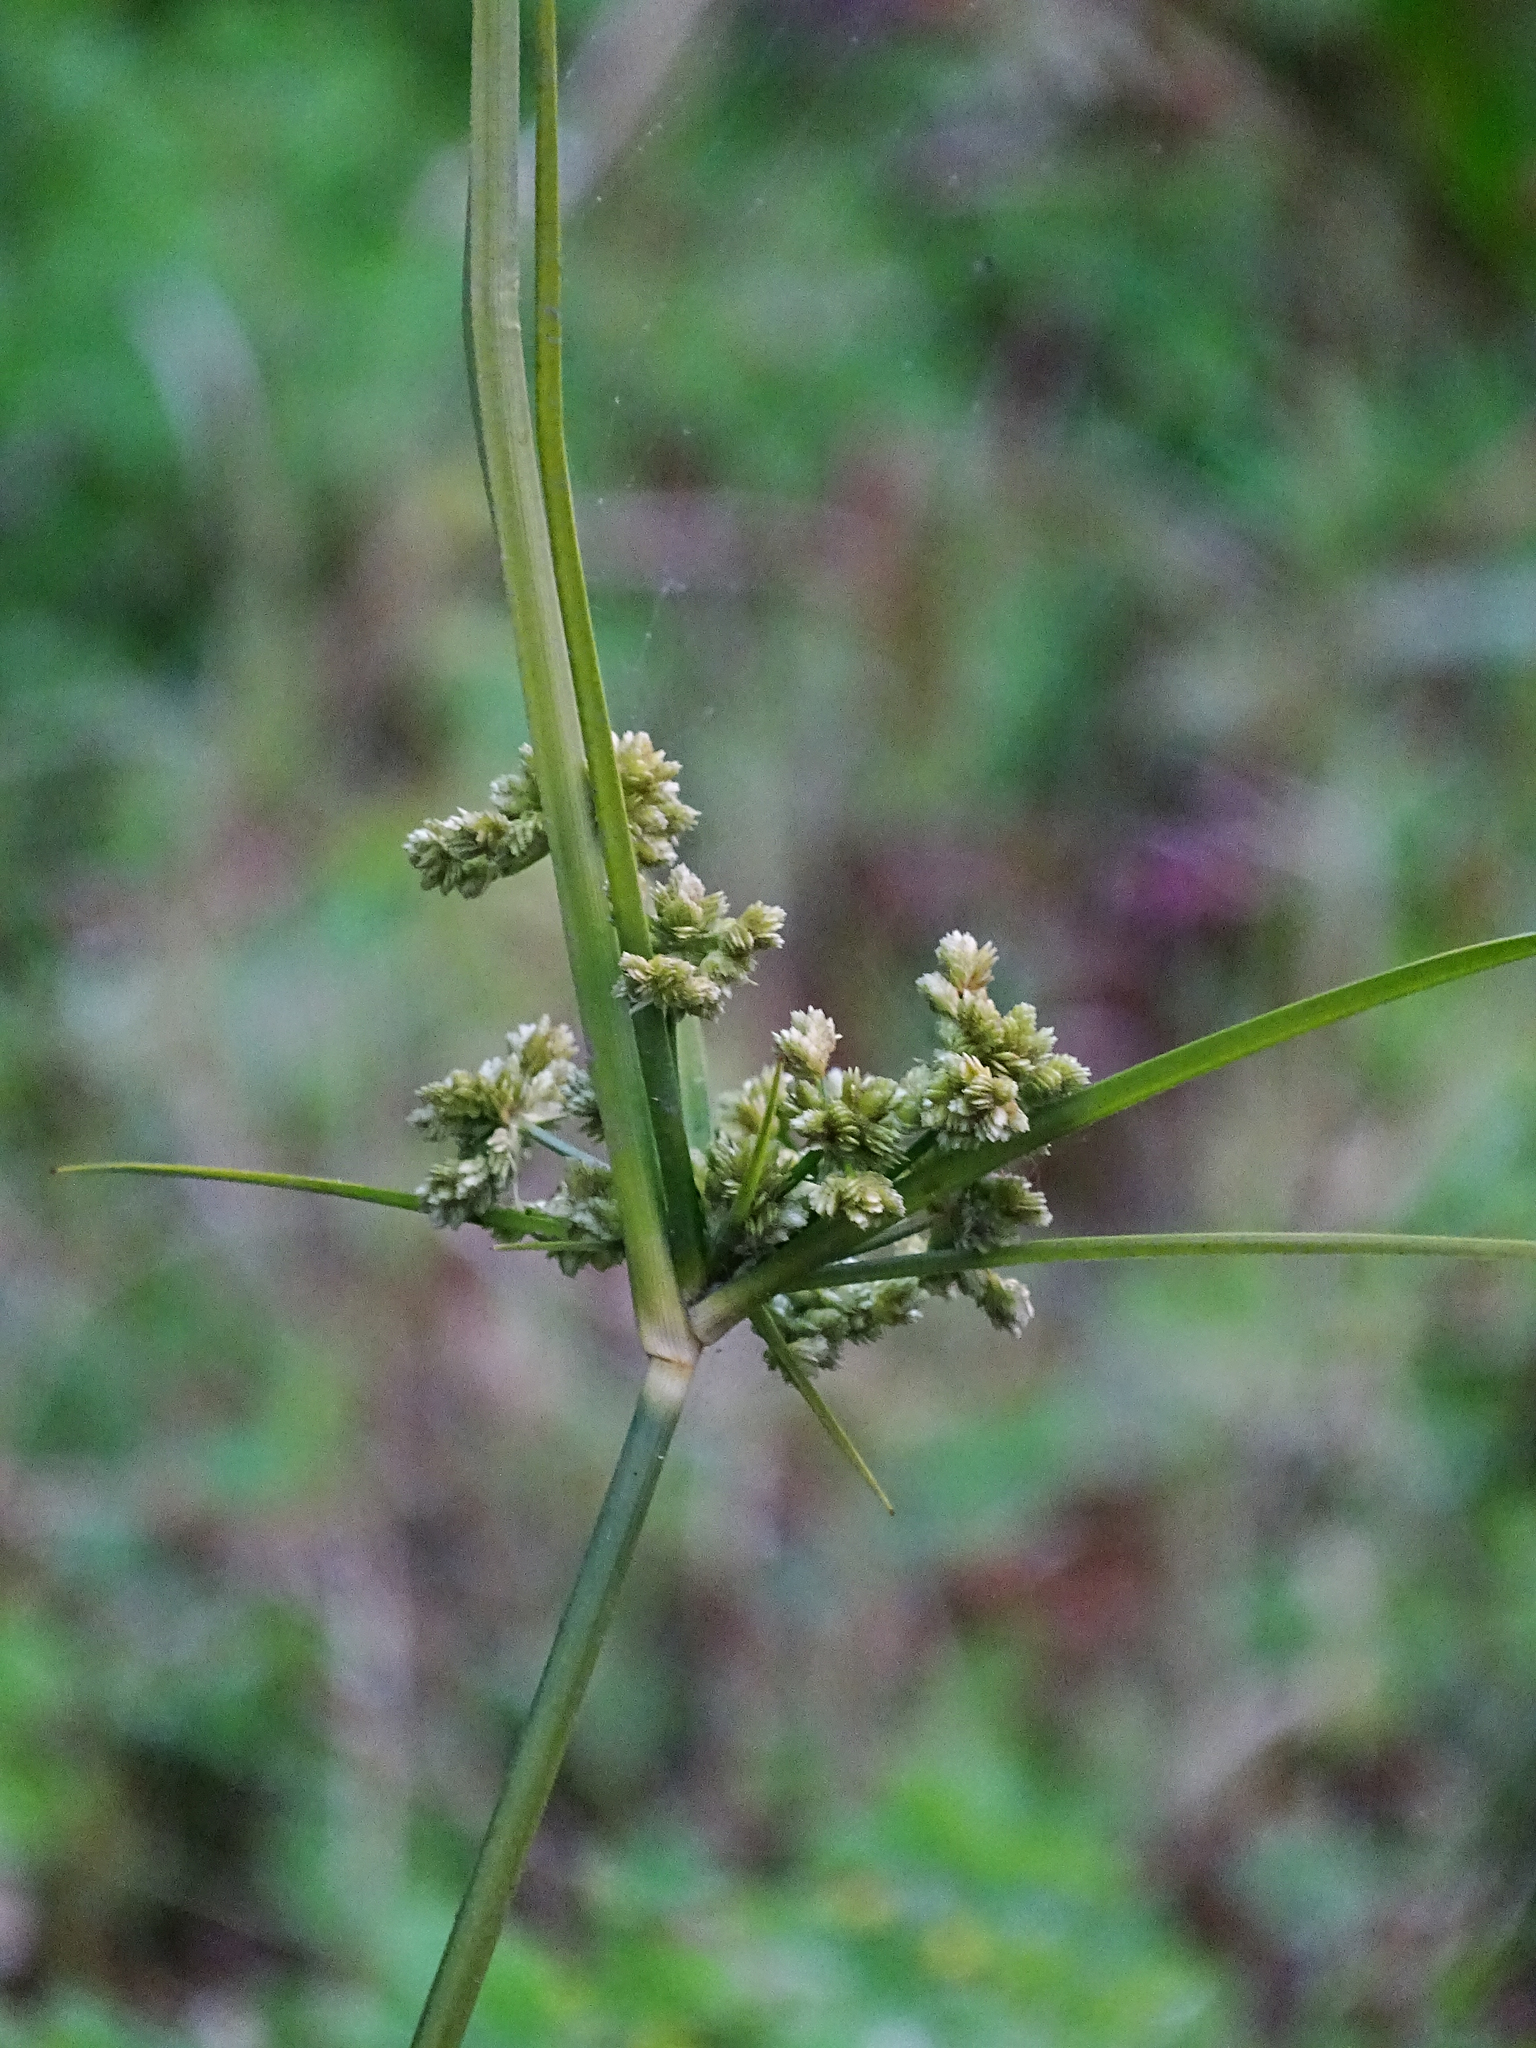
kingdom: Plantae
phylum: Tracheophyta
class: Liliopsida
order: Poales
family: Cyperaceae
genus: Cyperus
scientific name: Cyperus surinamensis
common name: Tropical flat sedge
